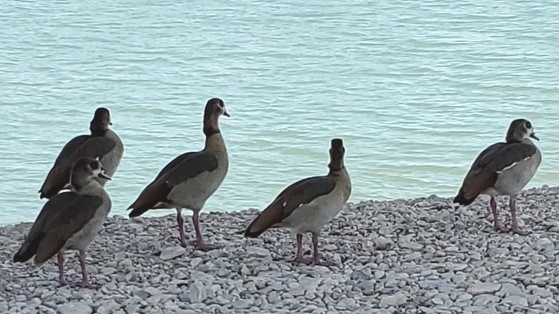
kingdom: Animalia
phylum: Chordata
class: Aves
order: Anseriformes
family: Anatidae
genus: Alopochen
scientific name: Alopochen aegyptiaca
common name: Egyptian goose
